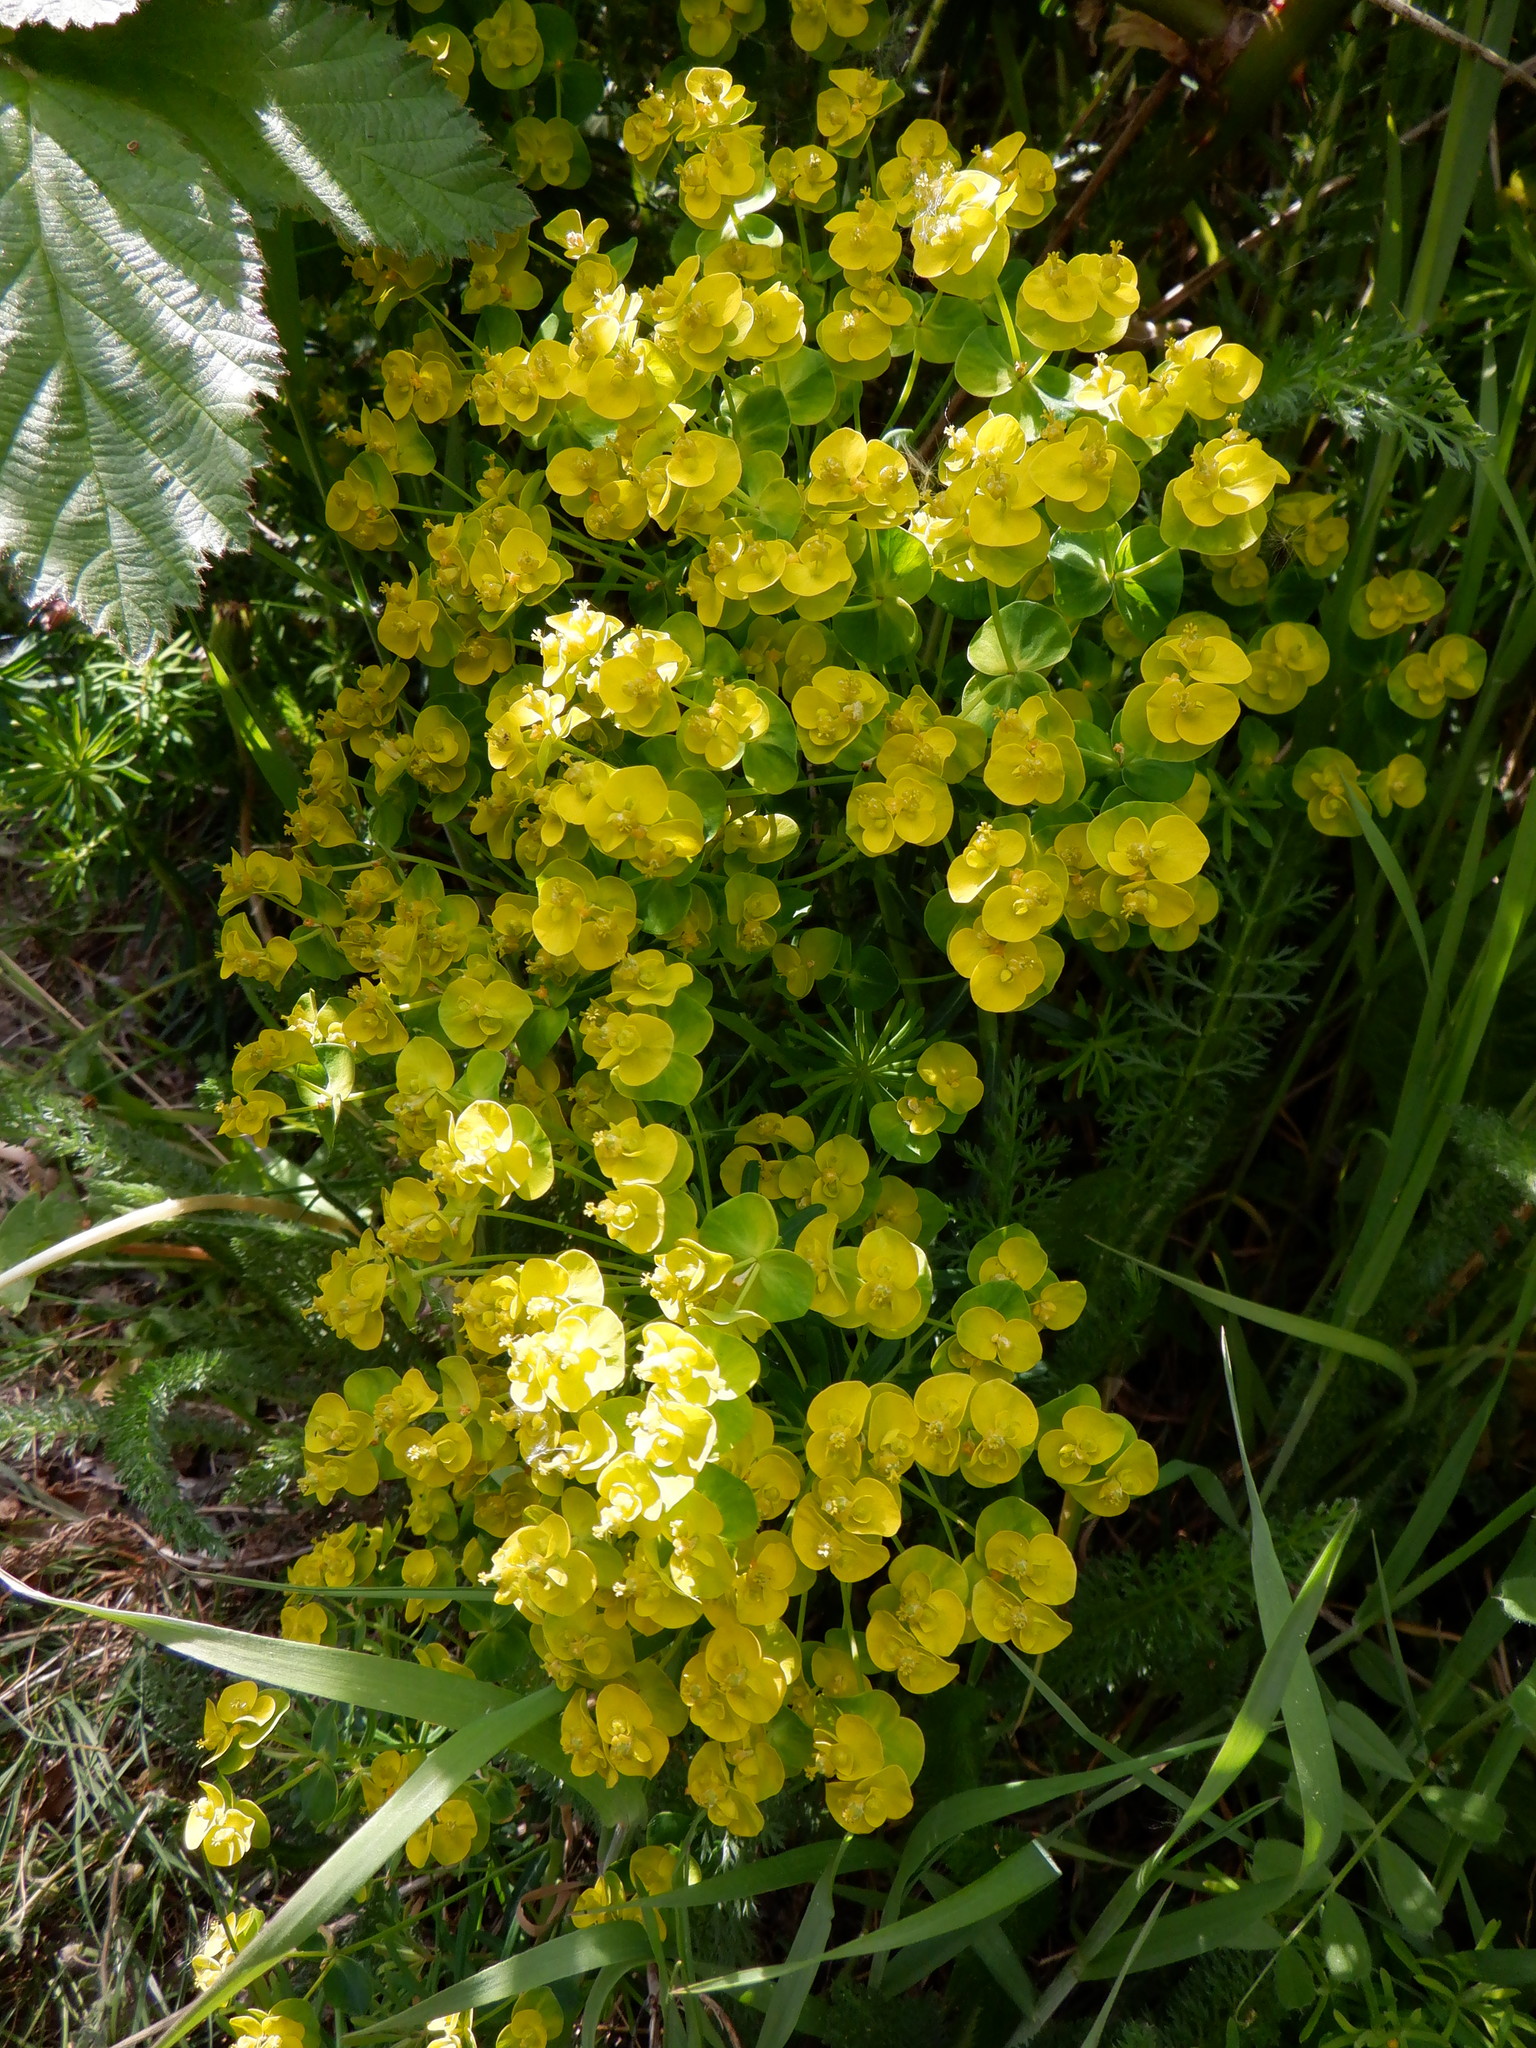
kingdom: Plantae
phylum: Tracheophyta
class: Magnoliopsida
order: Malpighiales
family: Euphorbiaceae
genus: Euphorbia
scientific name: Euphorbia cyparissias
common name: Cypress spurge
